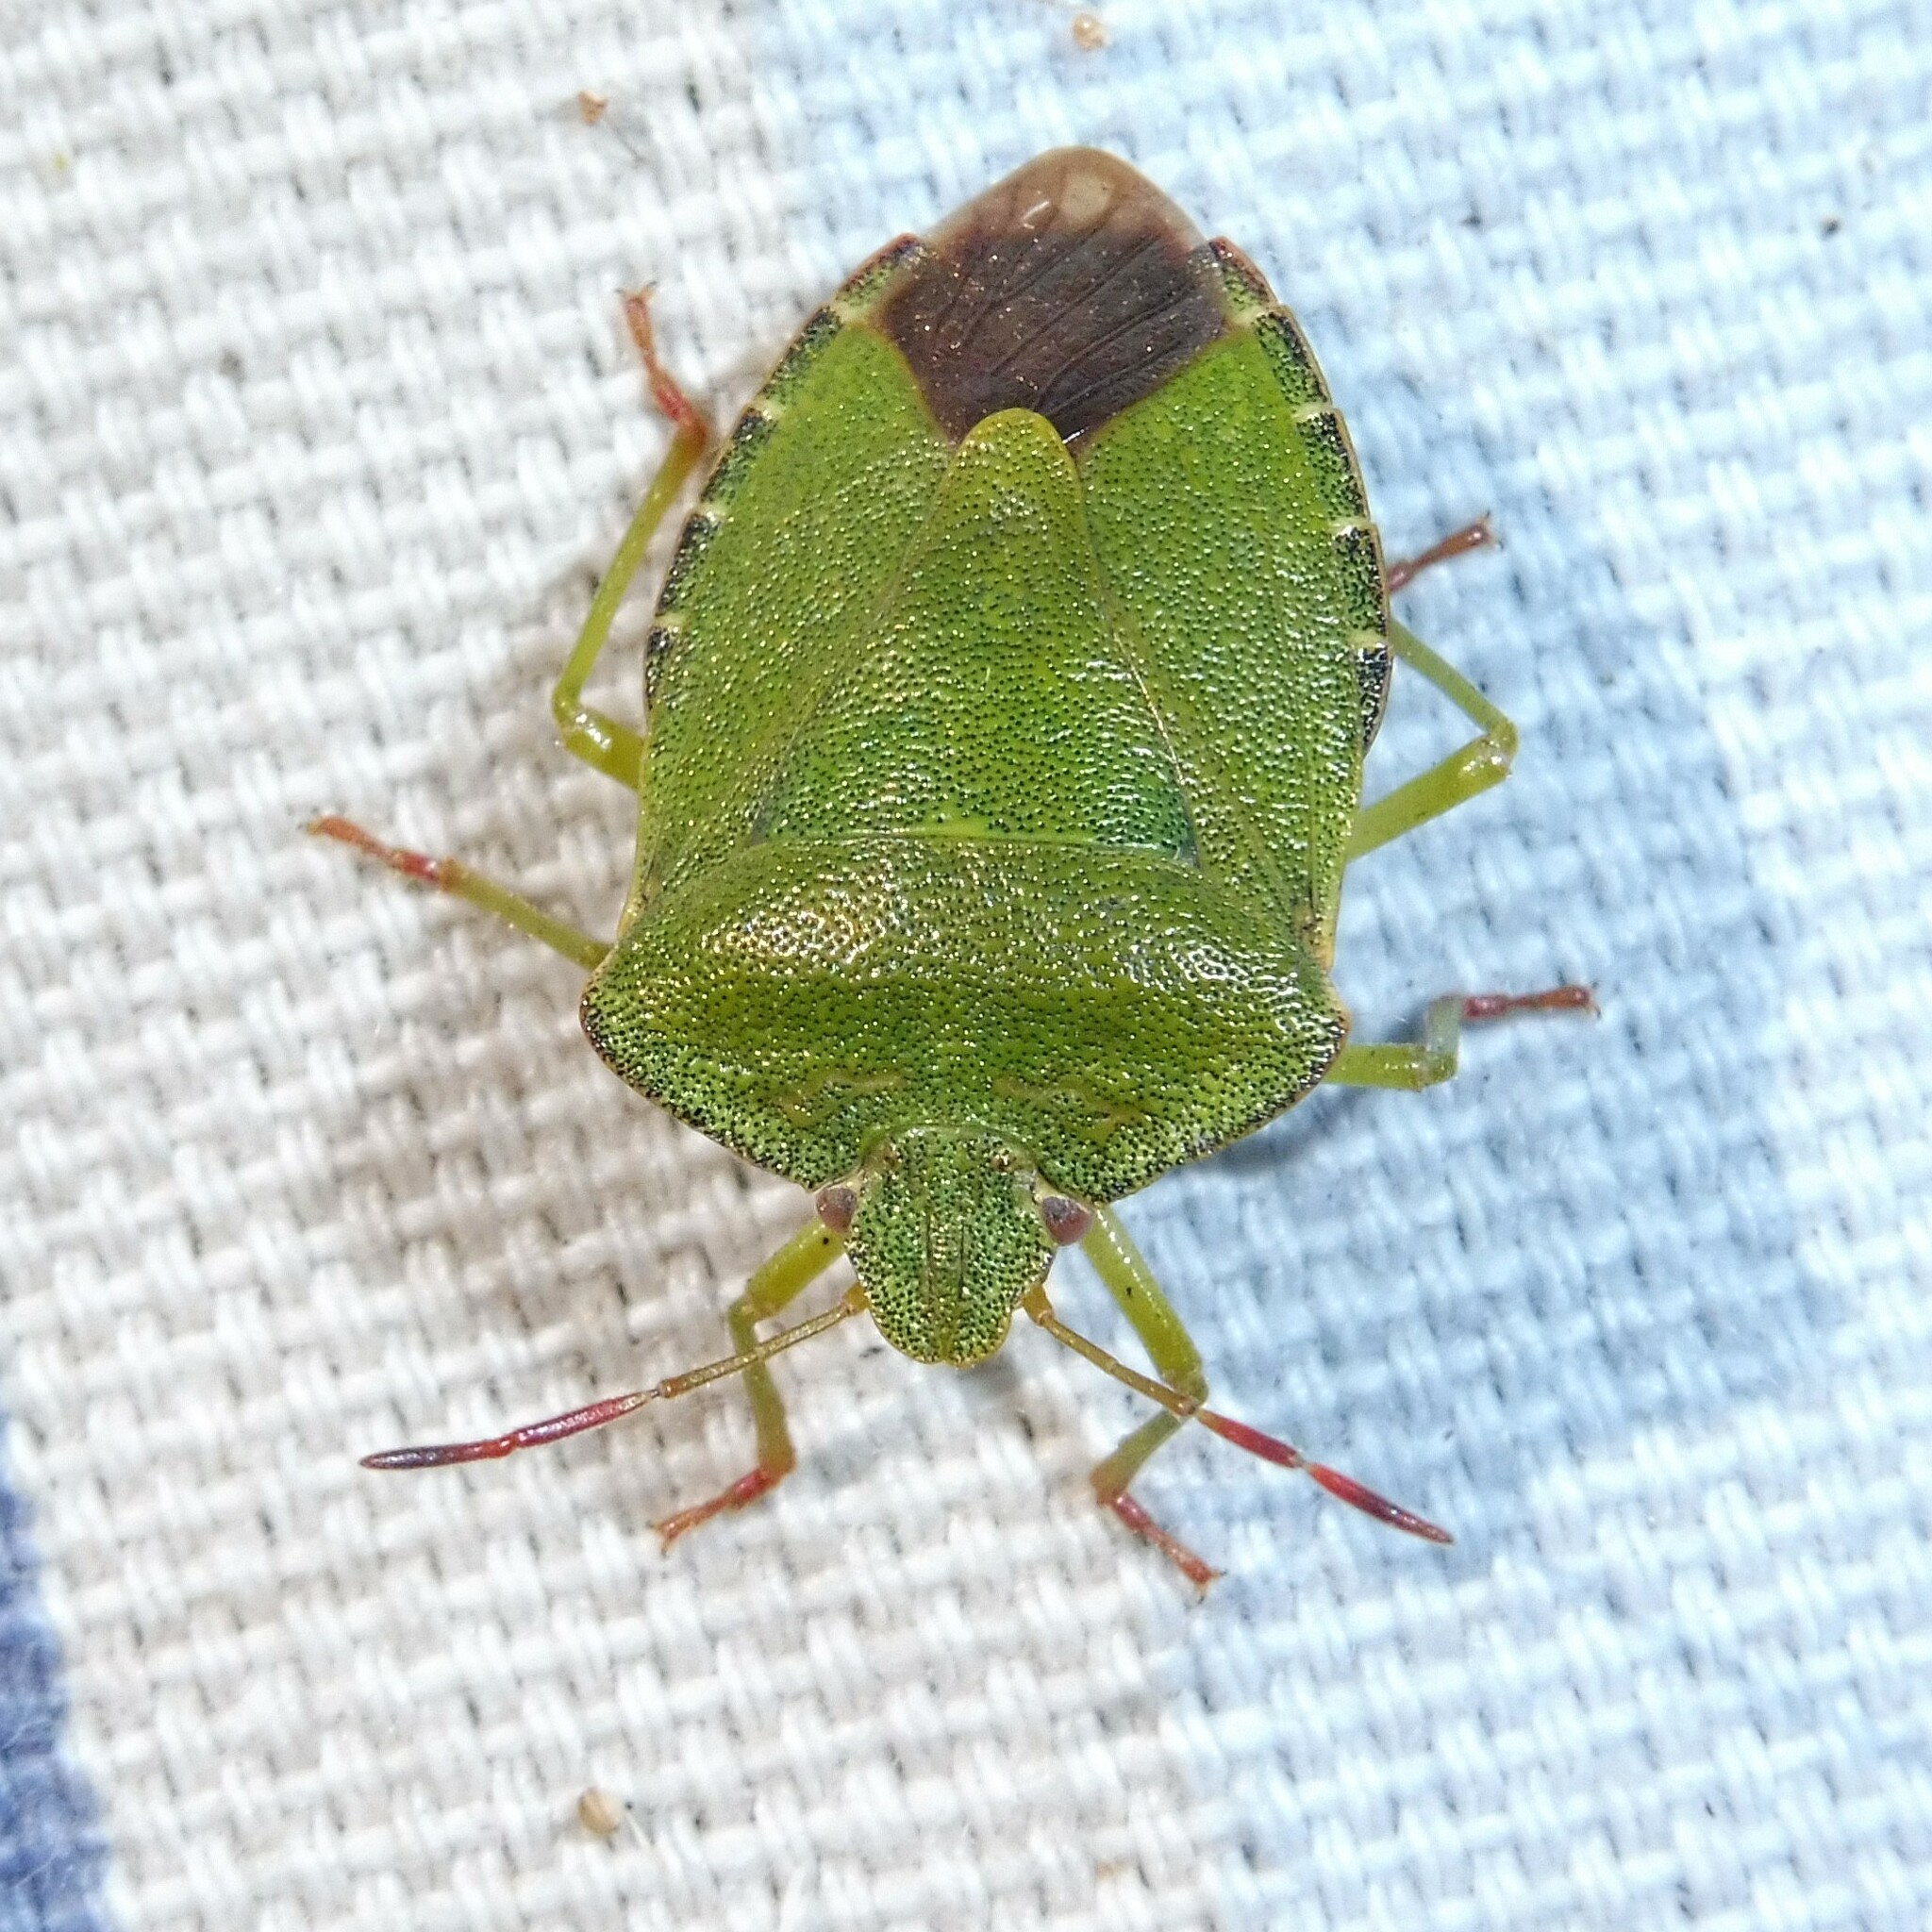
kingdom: Animalia
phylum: Arthropoda
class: Insecta
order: Hemiptera
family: Pentatomidae
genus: Palomena
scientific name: Palomena prasina
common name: Green shieldbug
